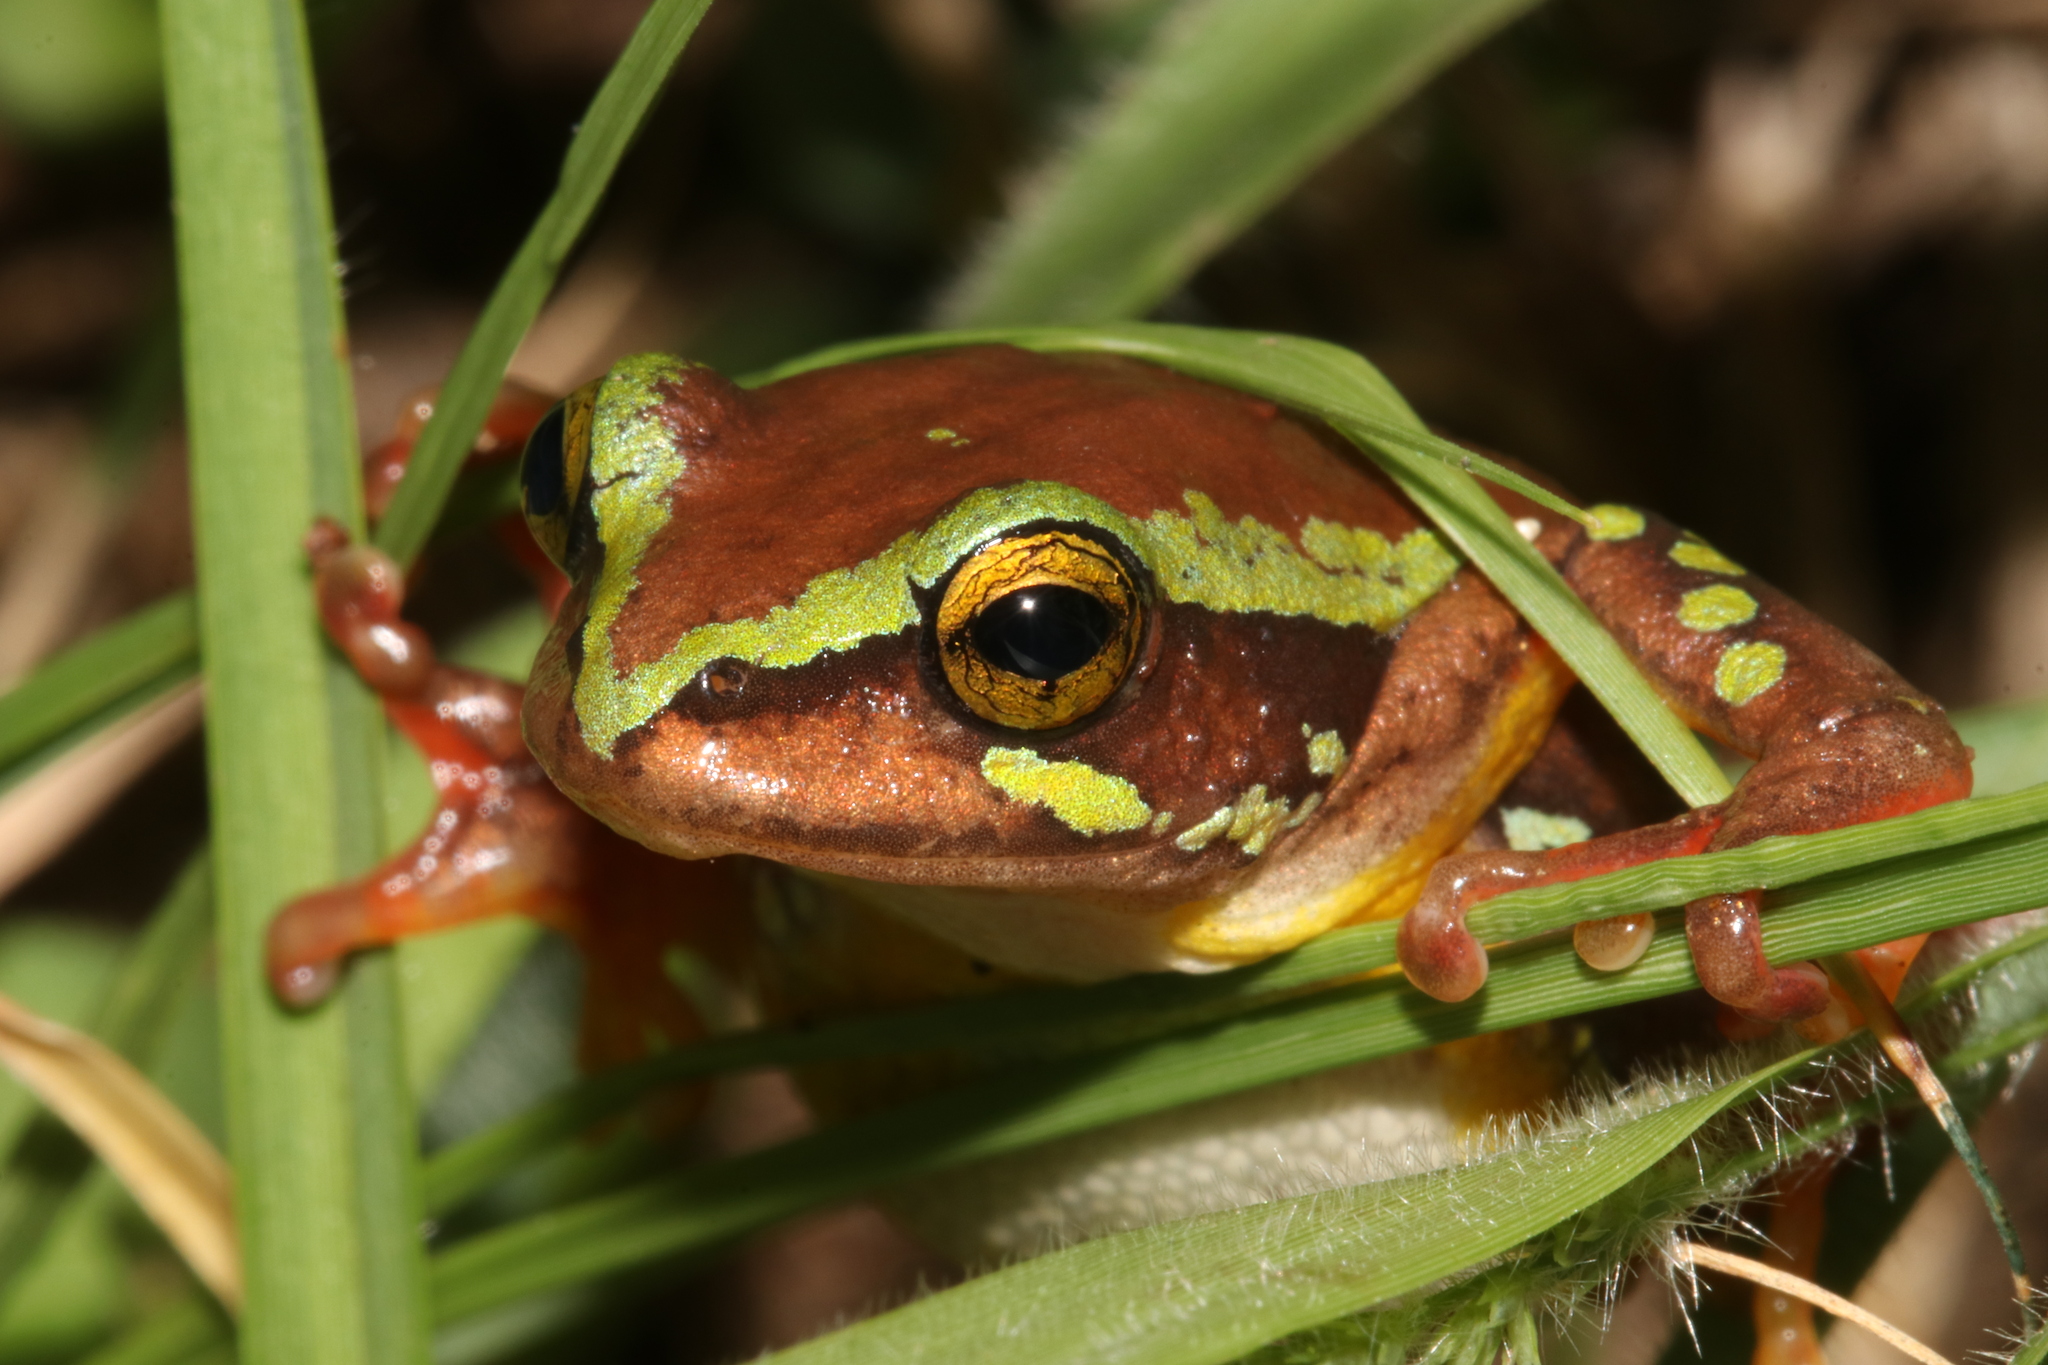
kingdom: Animalia
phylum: Chordata
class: Amphibia
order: Anura
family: Hyperoliidae
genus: Hyperolius
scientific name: Hyperolius pictus
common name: Variable reed frog
